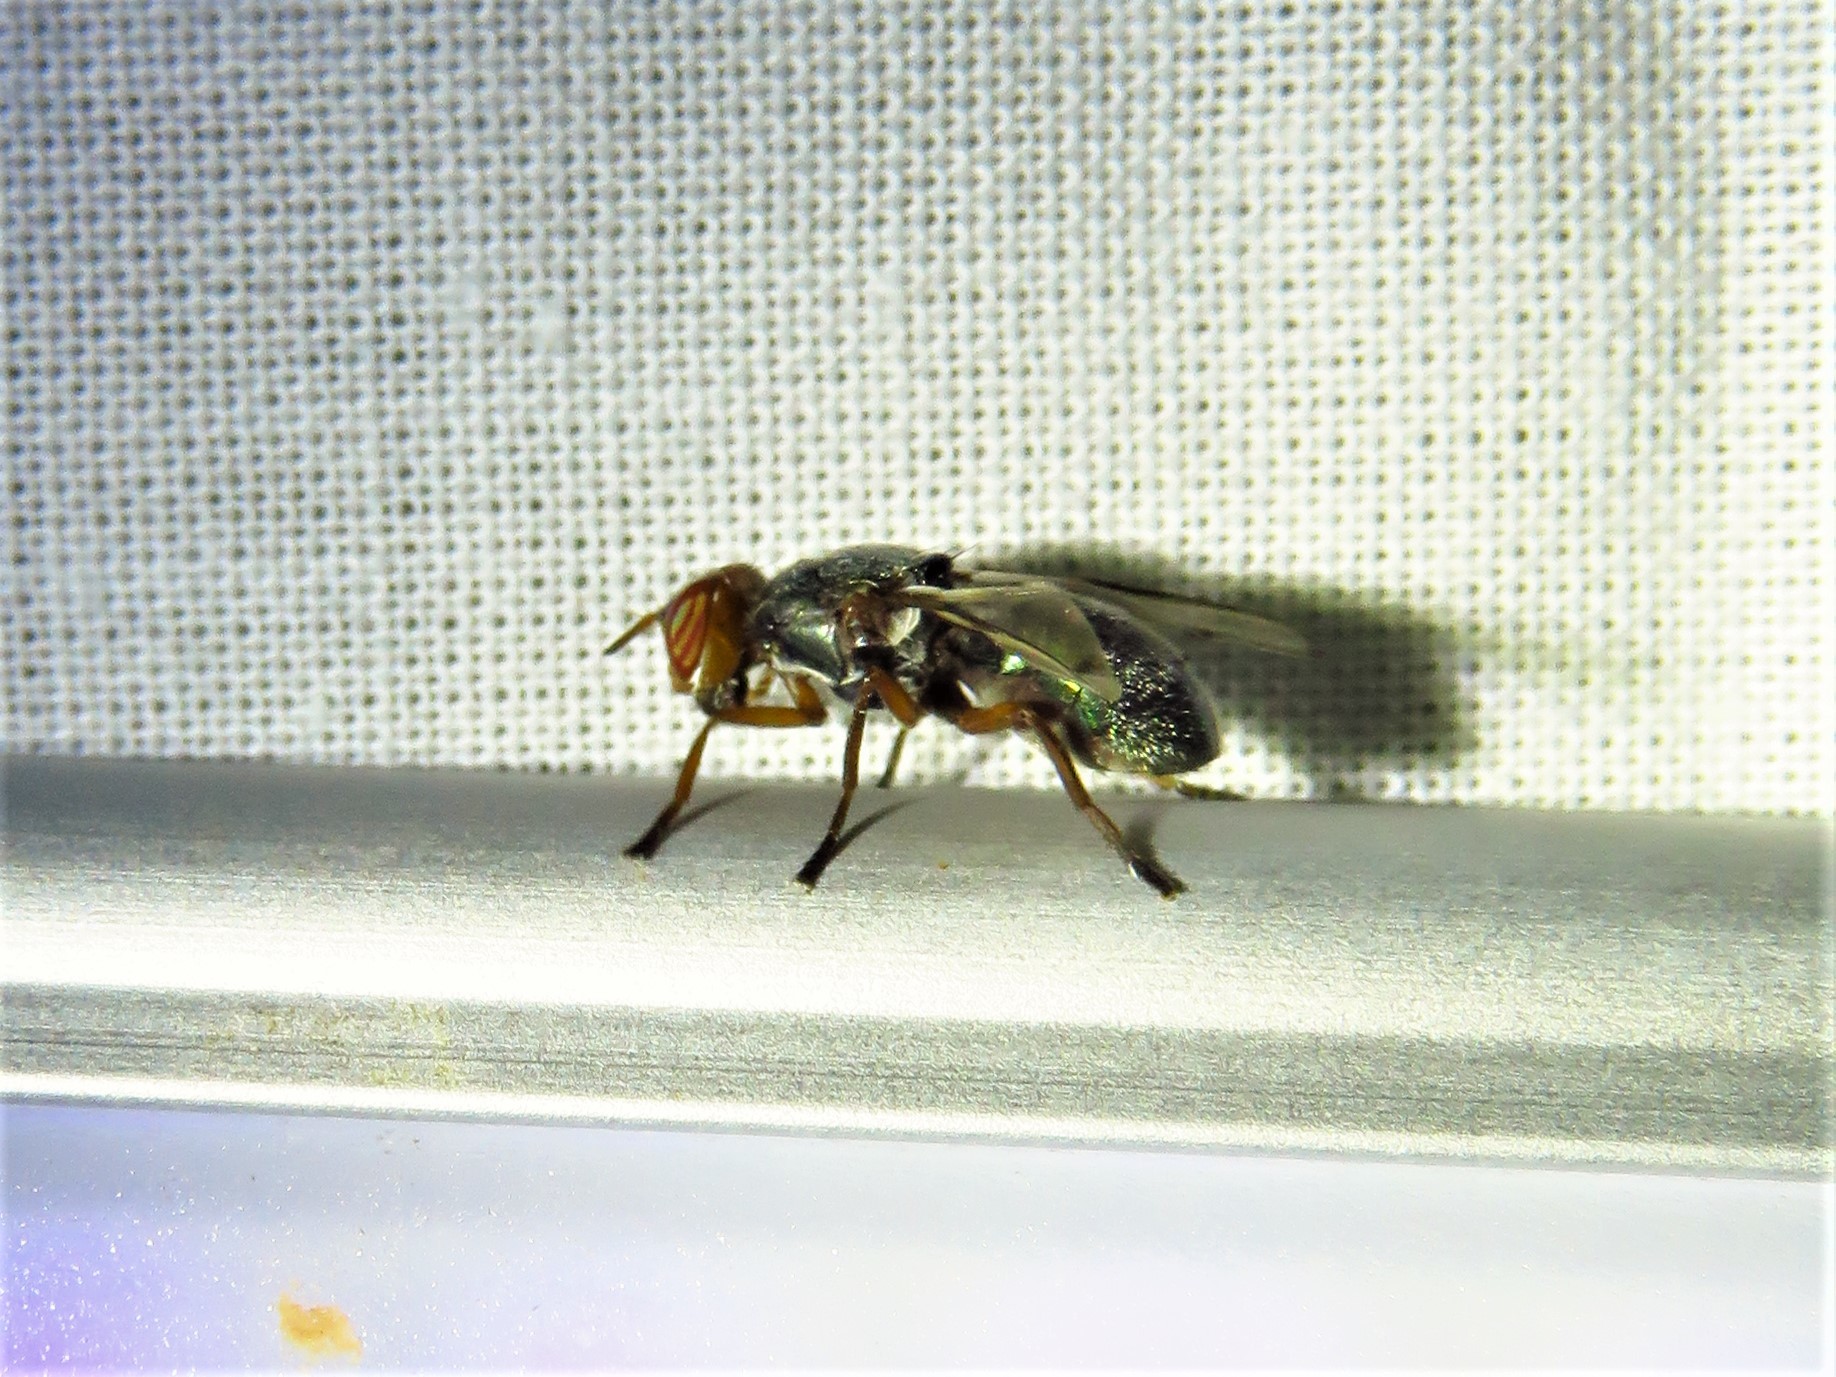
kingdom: Animalia
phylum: Arthropoda
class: Insecta
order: Diptera
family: Platystomatidae
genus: Senopterina
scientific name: Senopterina caerulescens
